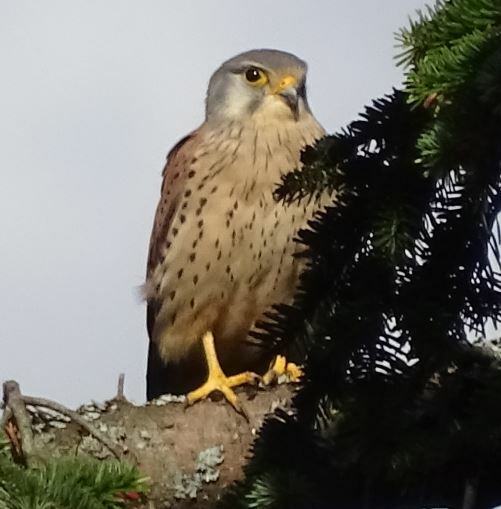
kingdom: Animalia
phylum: Chordata
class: Aves
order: Falconiformes
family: Falconidae
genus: Falco
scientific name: Falco tinnunculus
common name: Common kestrel
